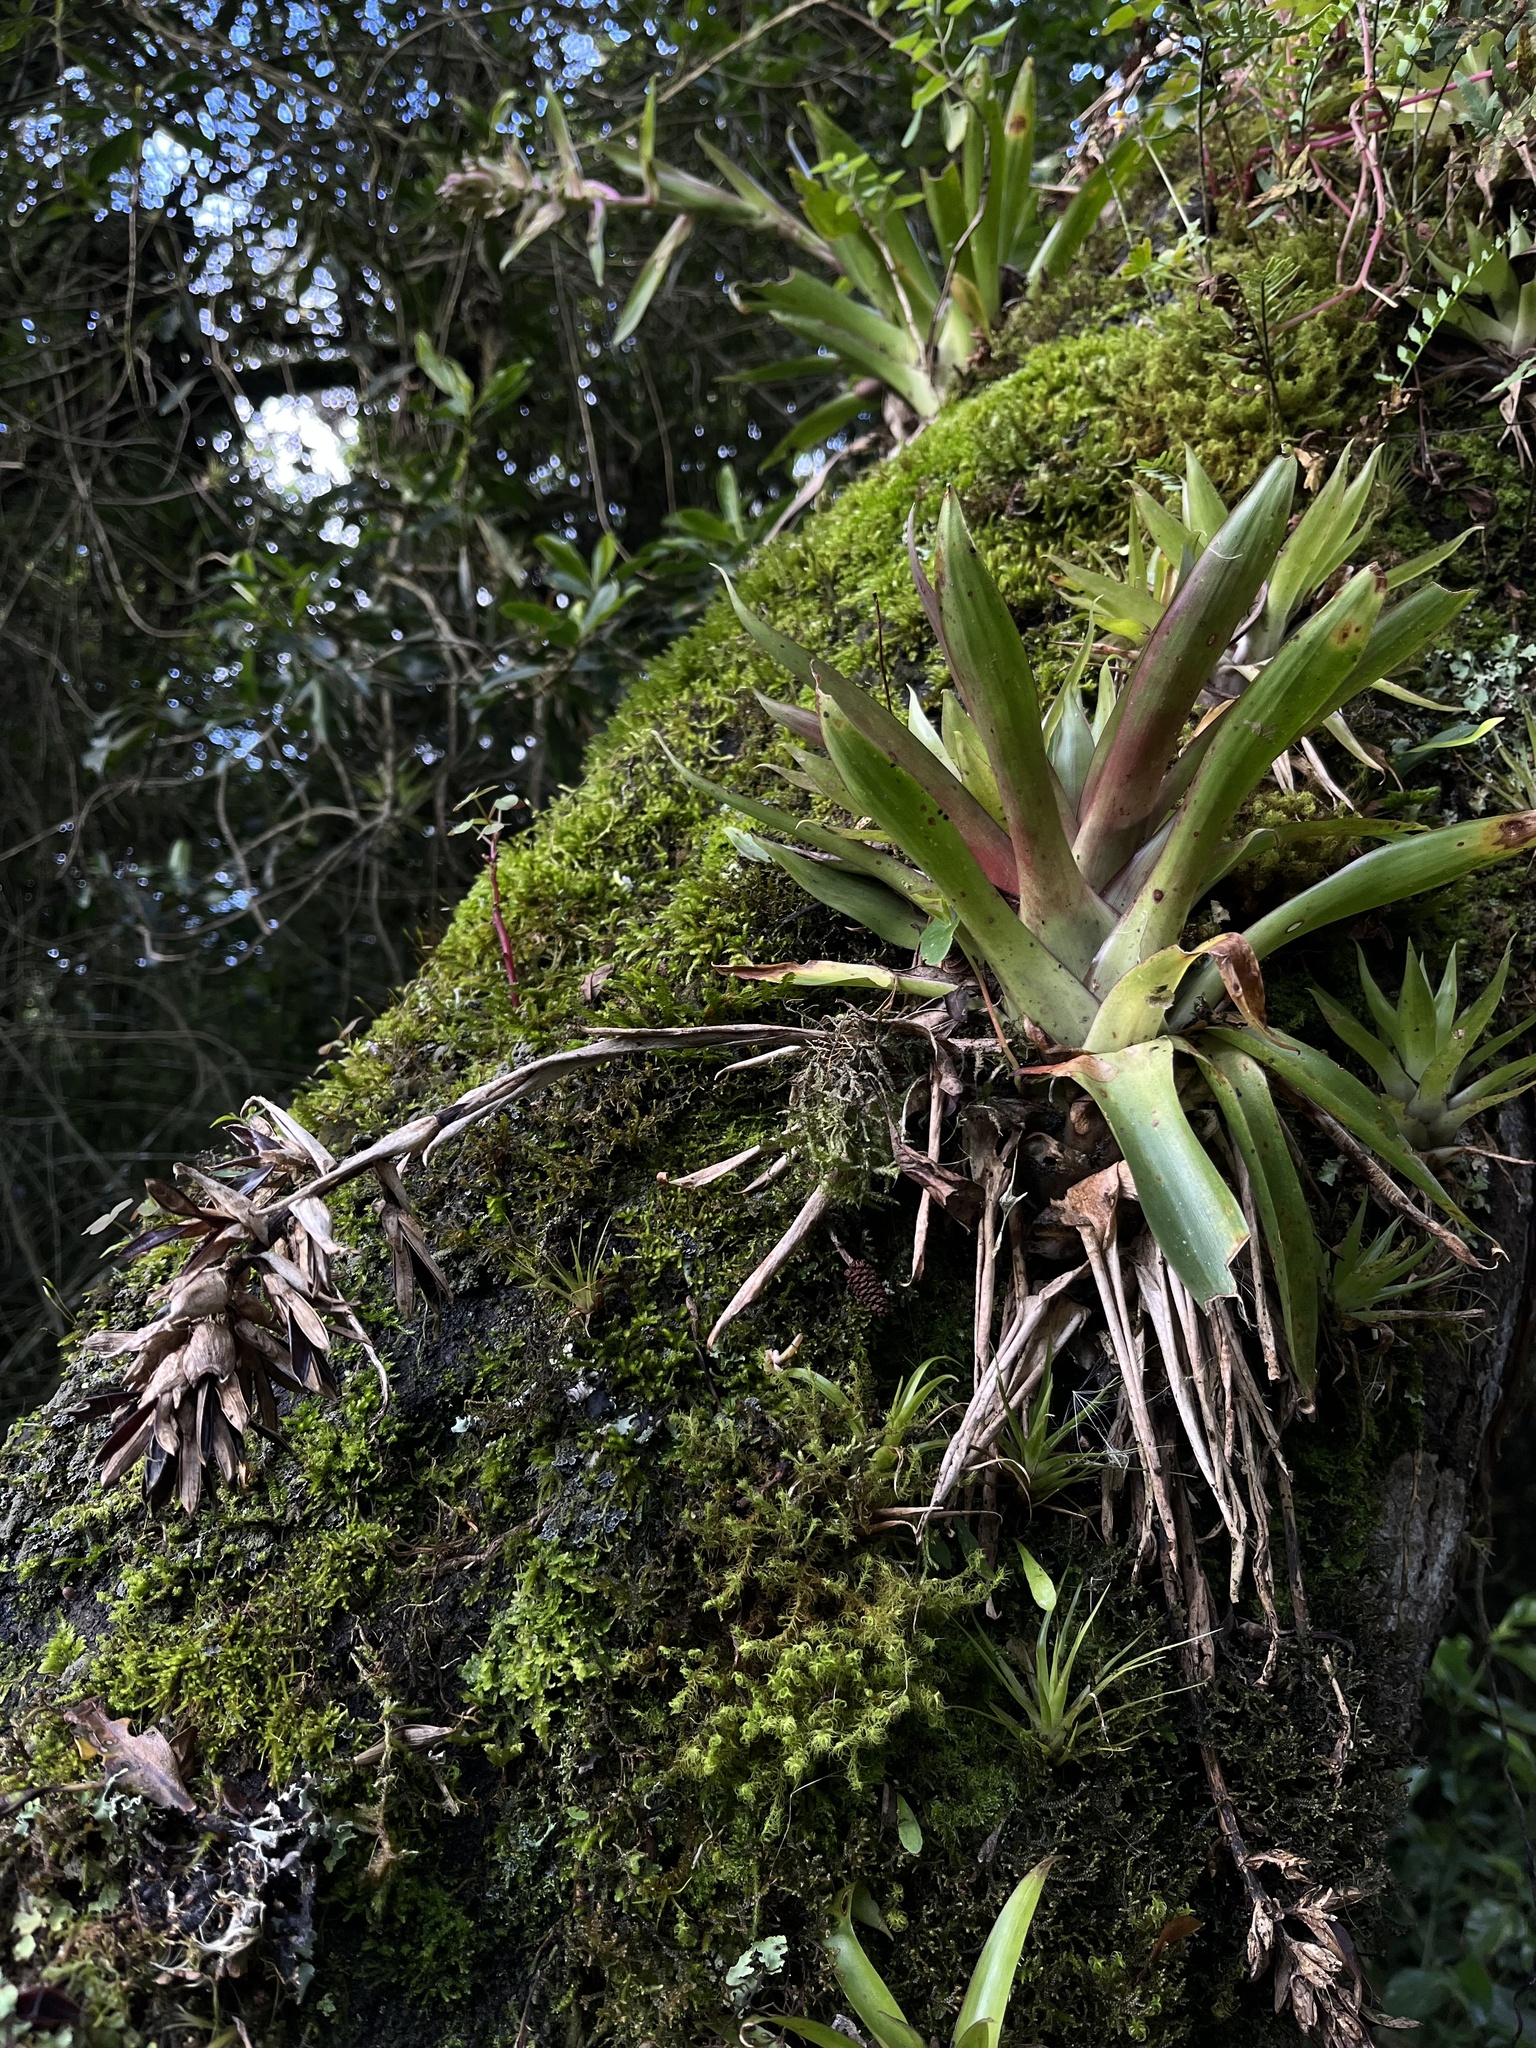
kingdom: Plantae
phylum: Tracheophyta
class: Liliopsida
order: Poales
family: Bromeliaceae
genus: Tillandsia
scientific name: Tillandsia biflora
